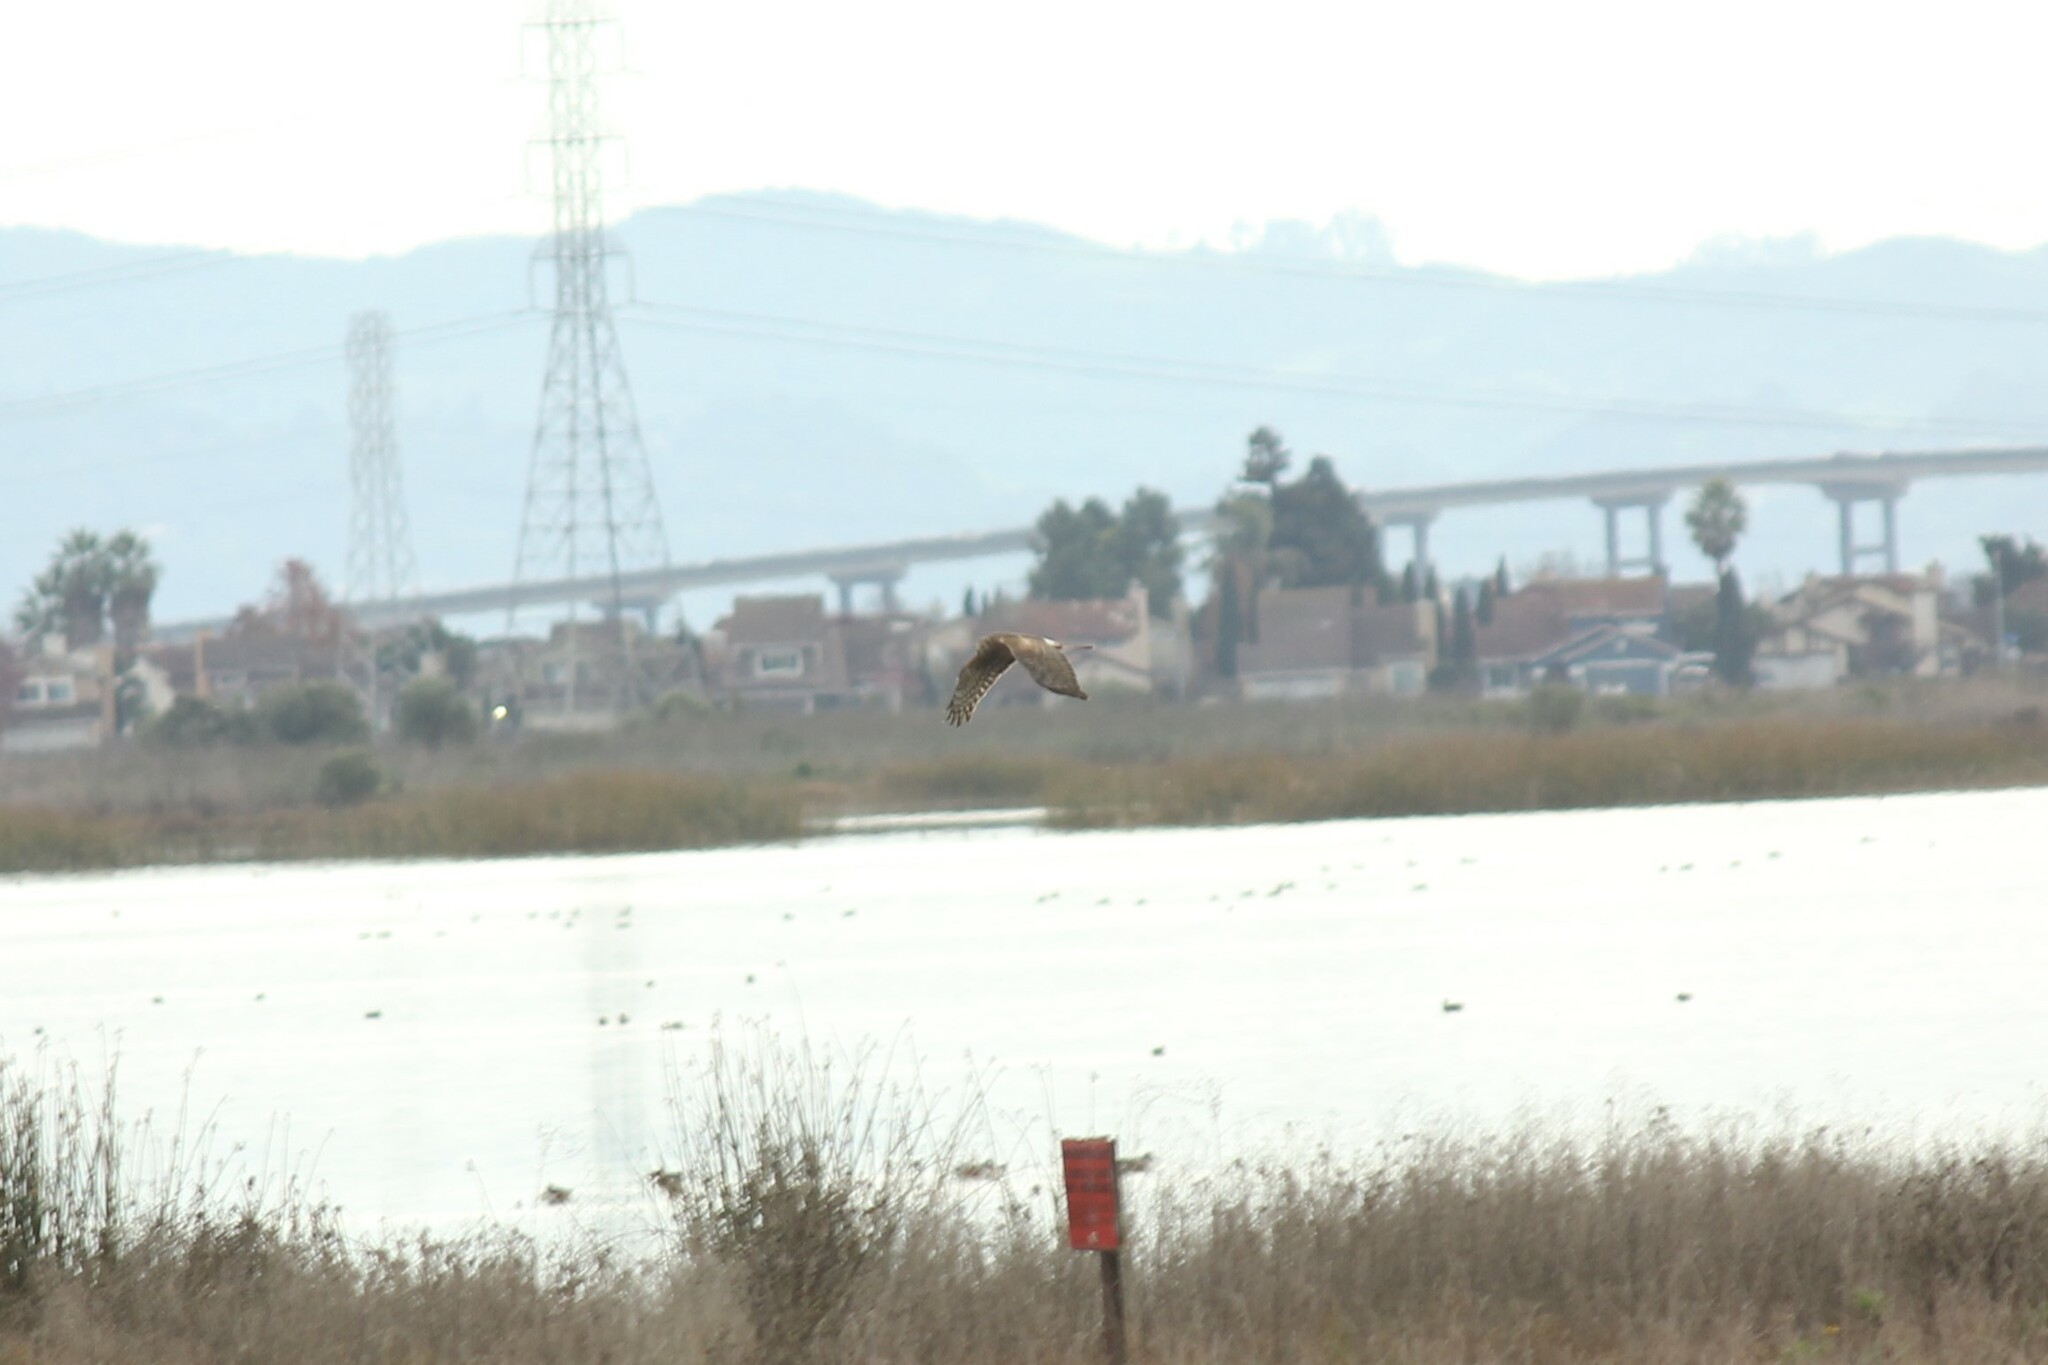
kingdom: Animalia
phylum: Chordata
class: Aves
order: Accipitriformes
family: Accipitridae
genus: Circus
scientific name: Circus cyaneus
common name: Hen harrier
